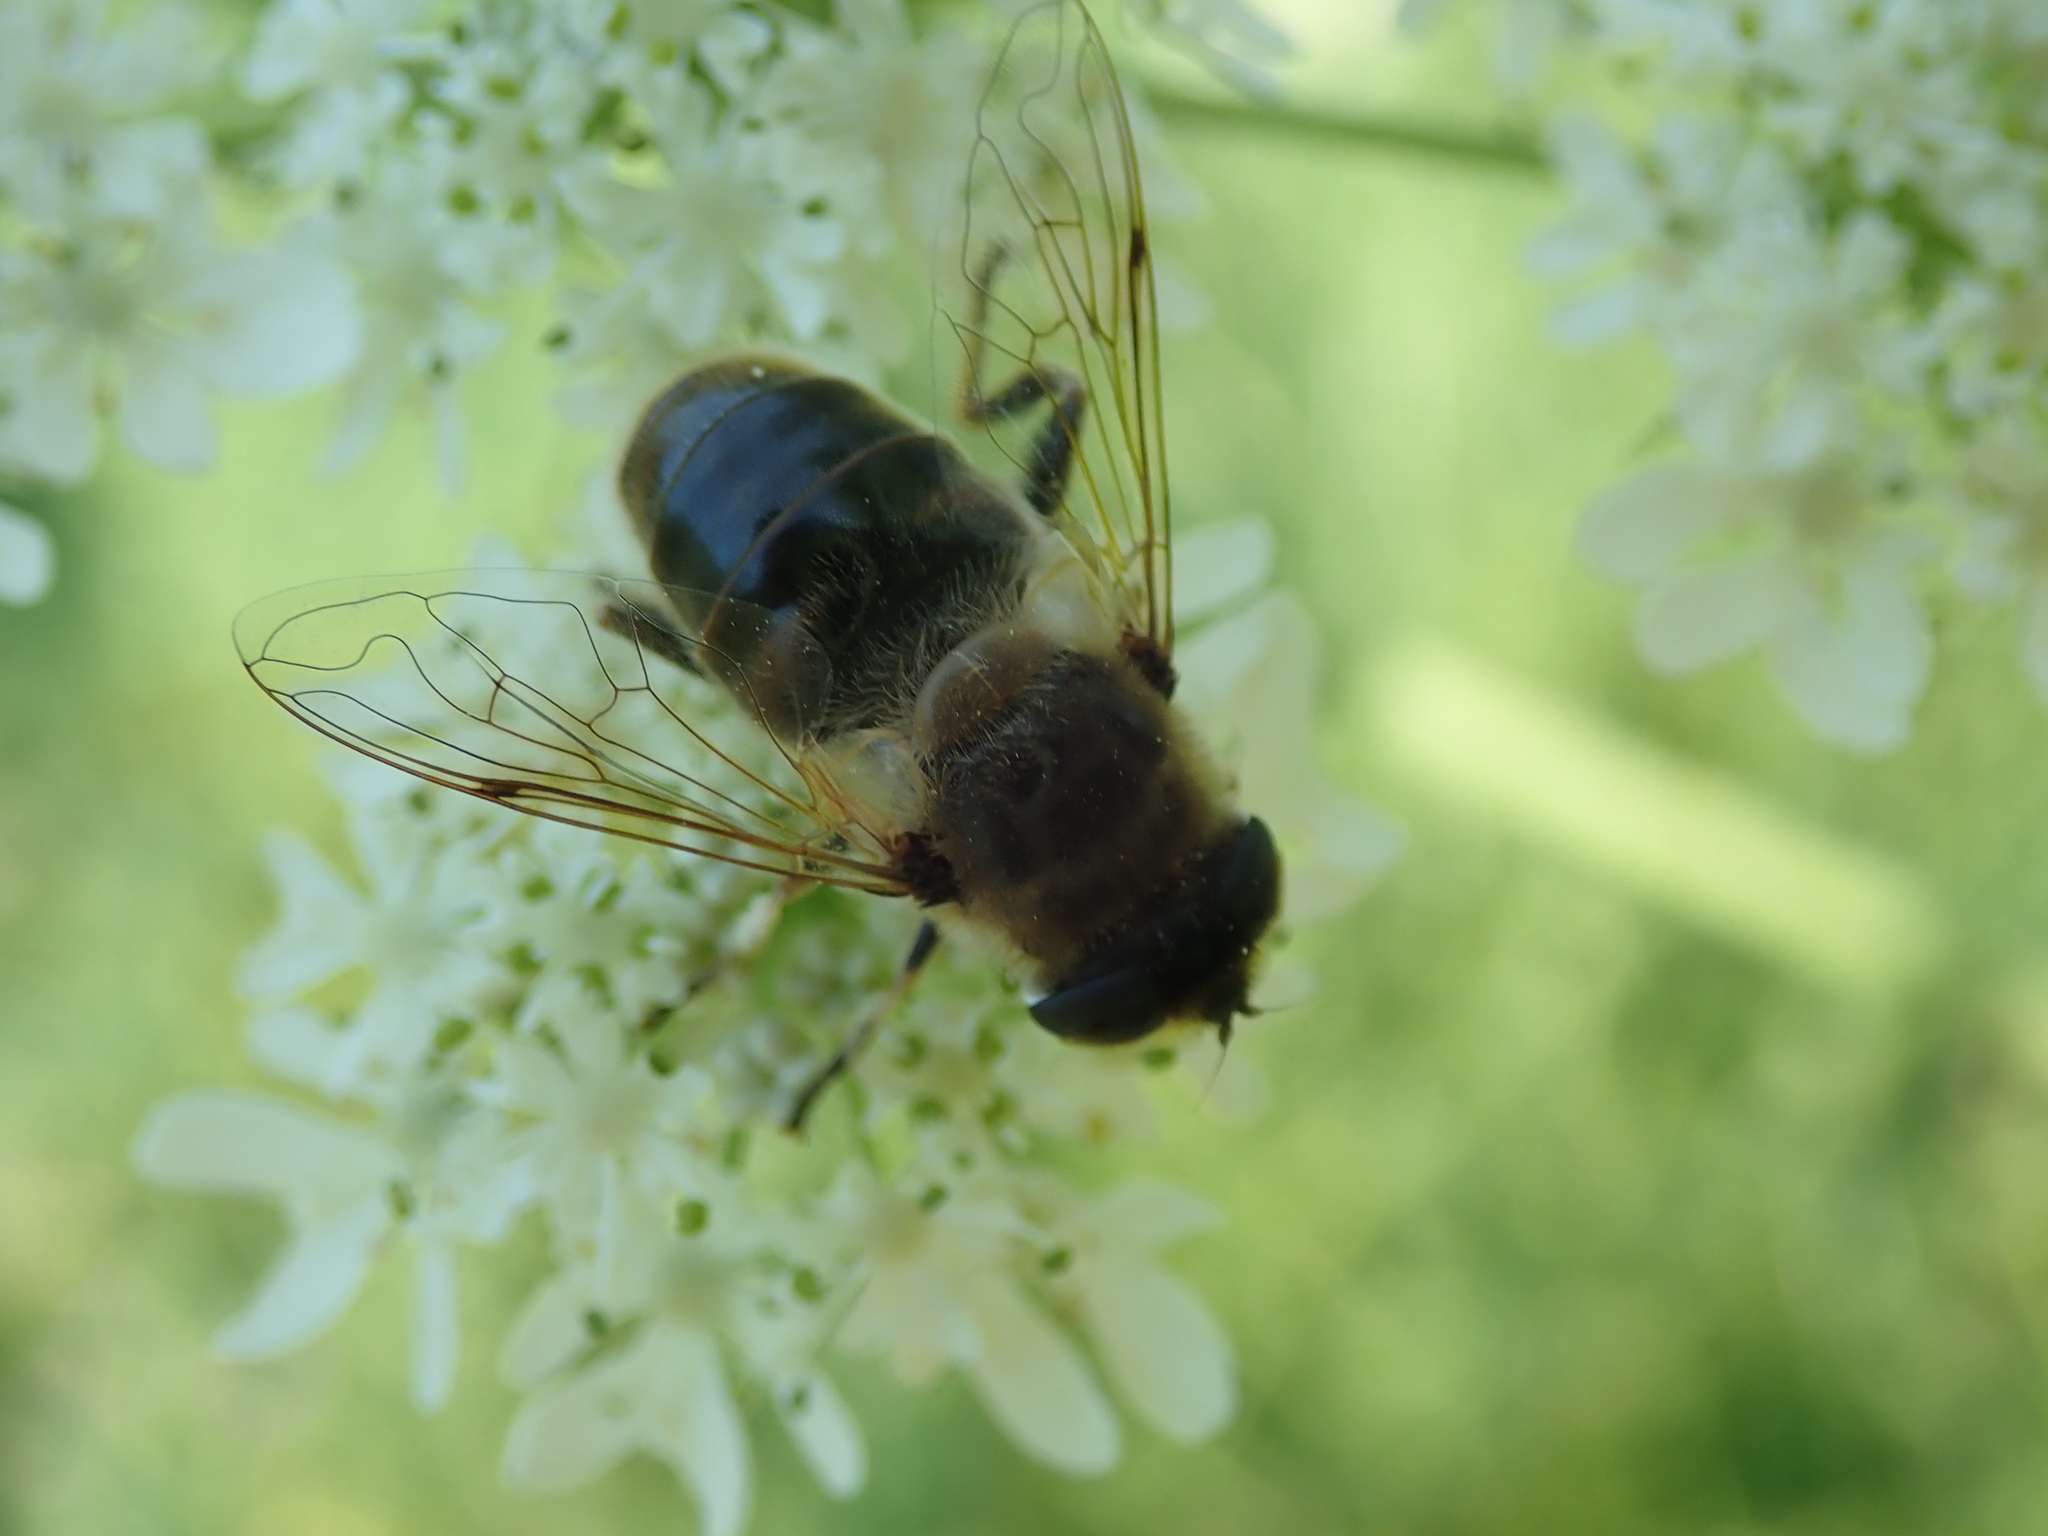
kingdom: Animalia
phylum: Arthropoda
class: Insecta
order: Diptera
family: Syrphidae
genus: Eristalis
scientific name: Eristalis tenax
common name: Drone fly
